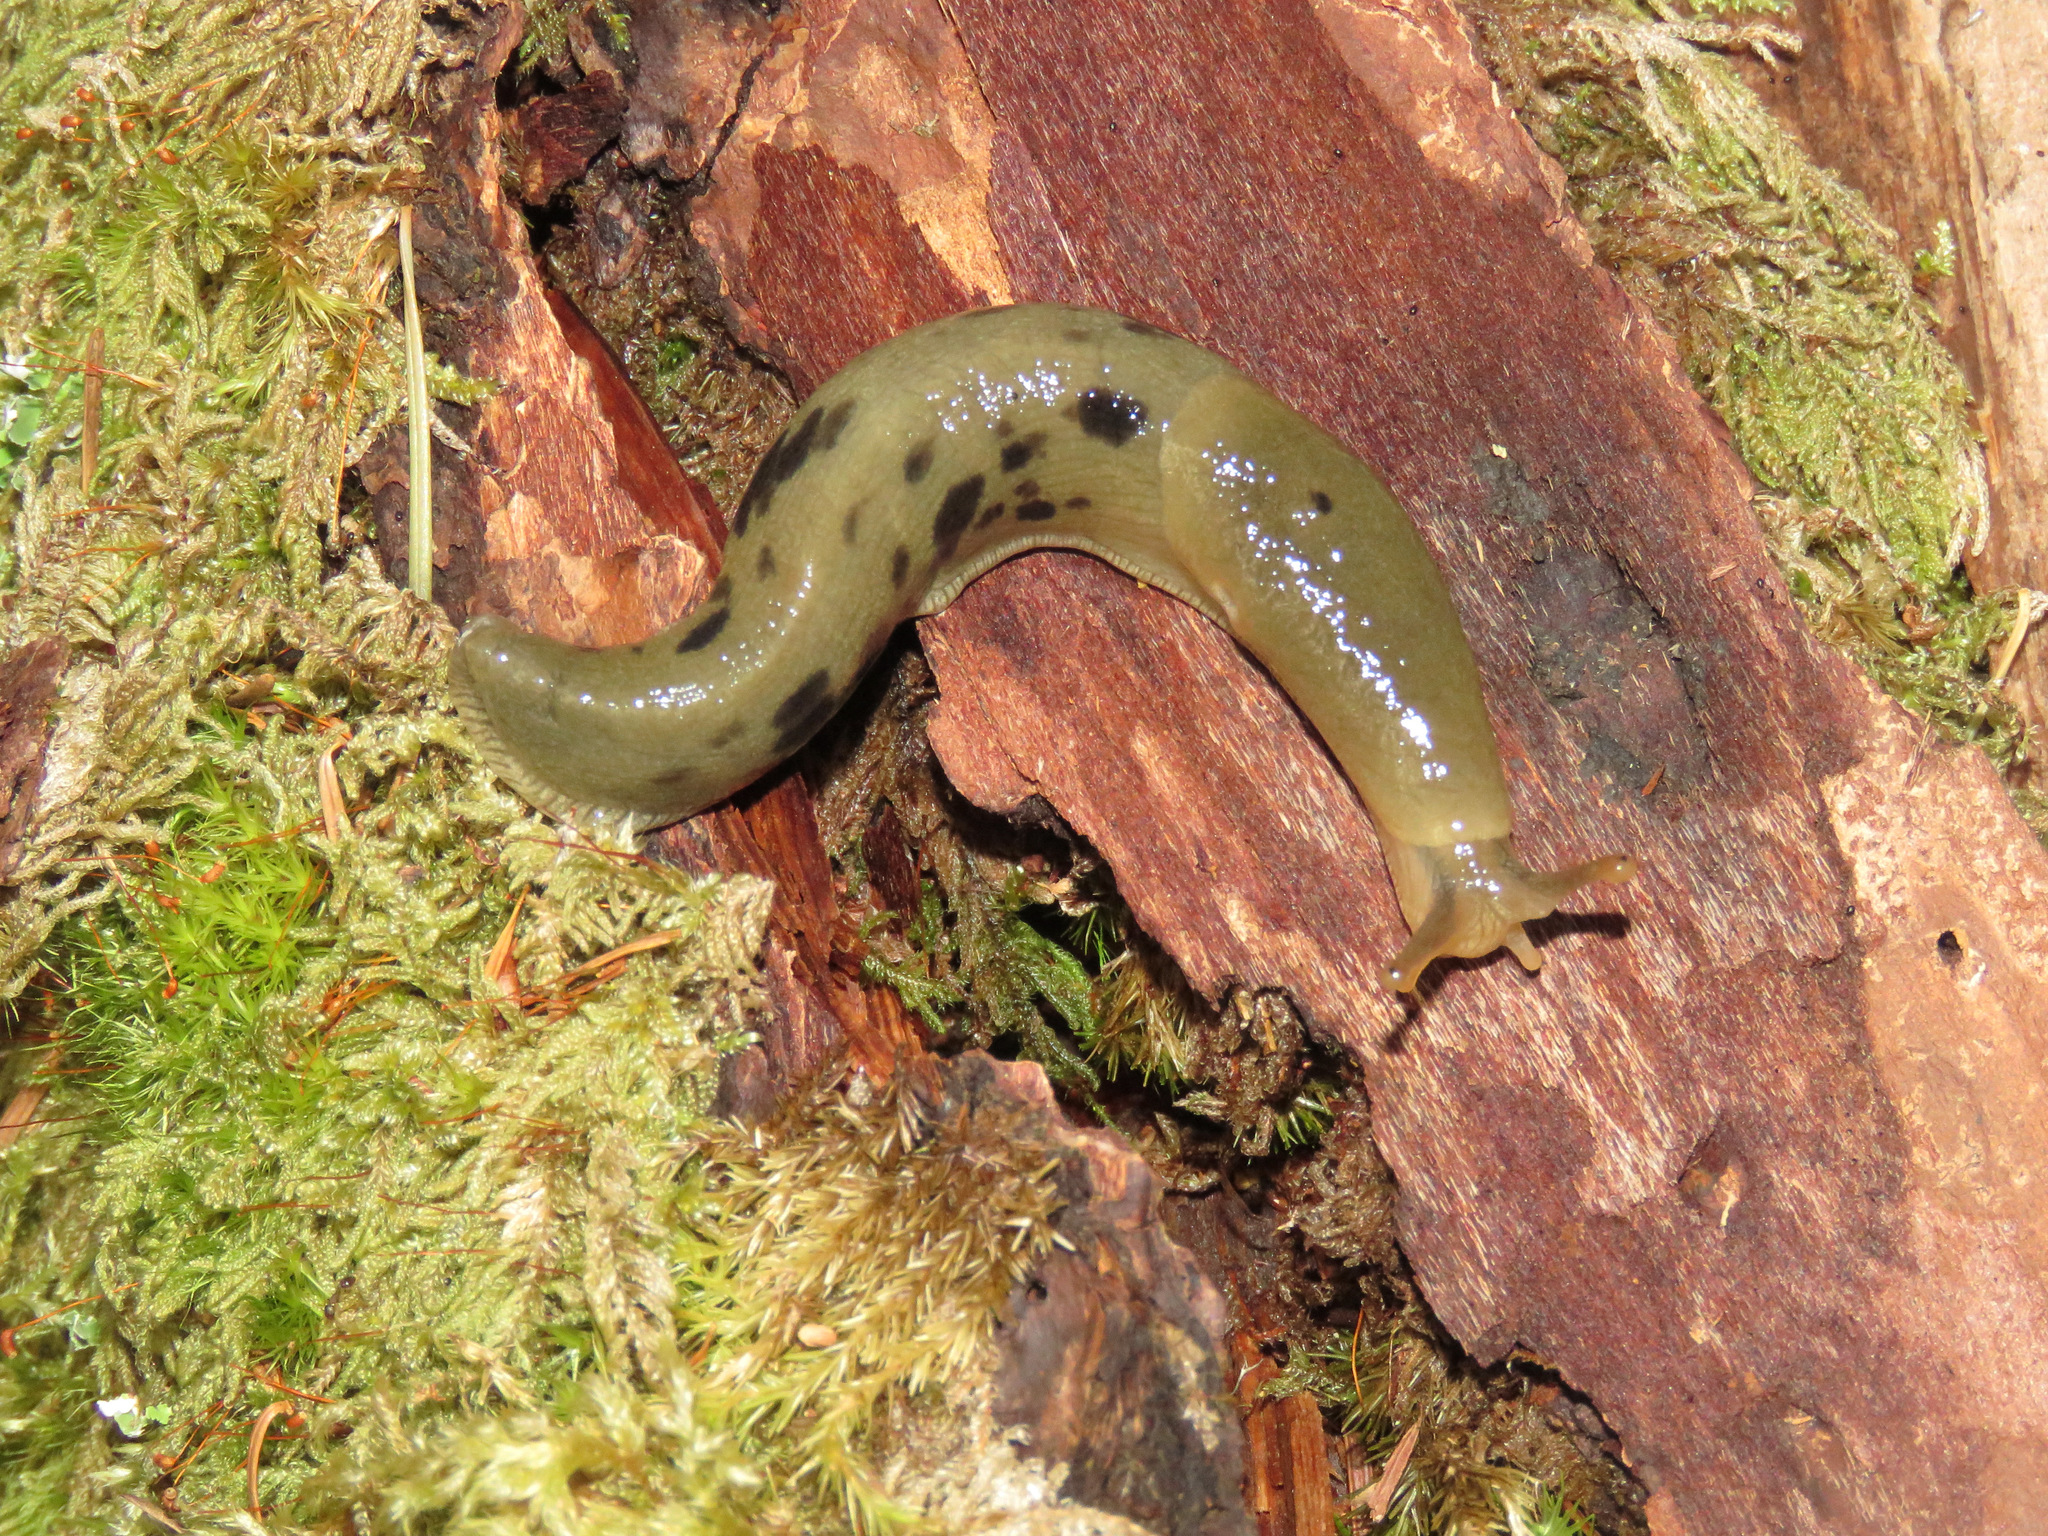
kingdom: Animalia
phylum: Mollusca
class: Gastropoda
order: Stylommatophora
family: Ariolimacidae
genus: Ariolimax
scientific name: Ariolimax columbianus
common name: Pacific banana slug
